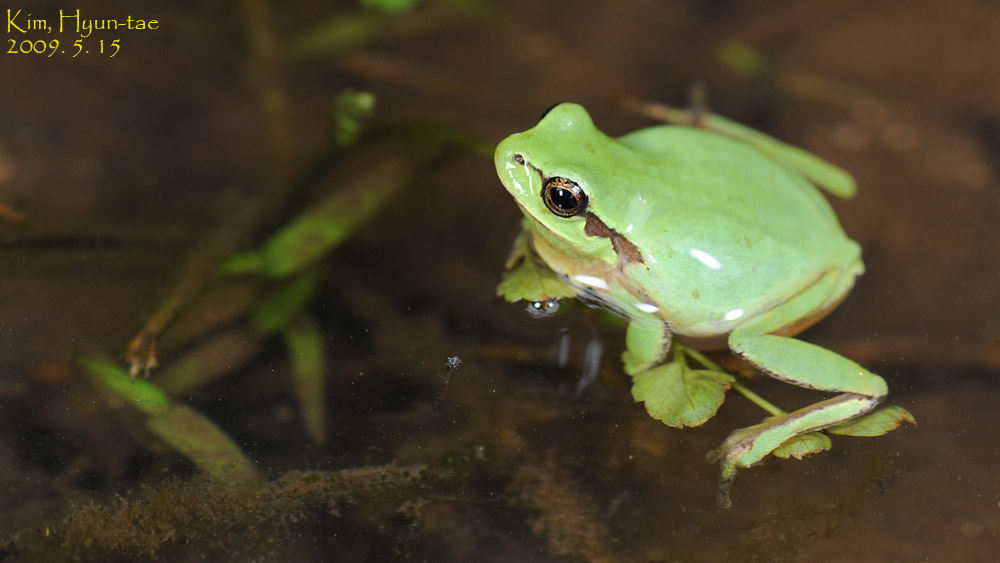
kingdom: Animalia
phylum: Chordata
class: Amphibia
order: Anura
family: Hylidae
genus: Dryophytes
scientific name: Dryophytes immaculatus
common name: North china treefrog
